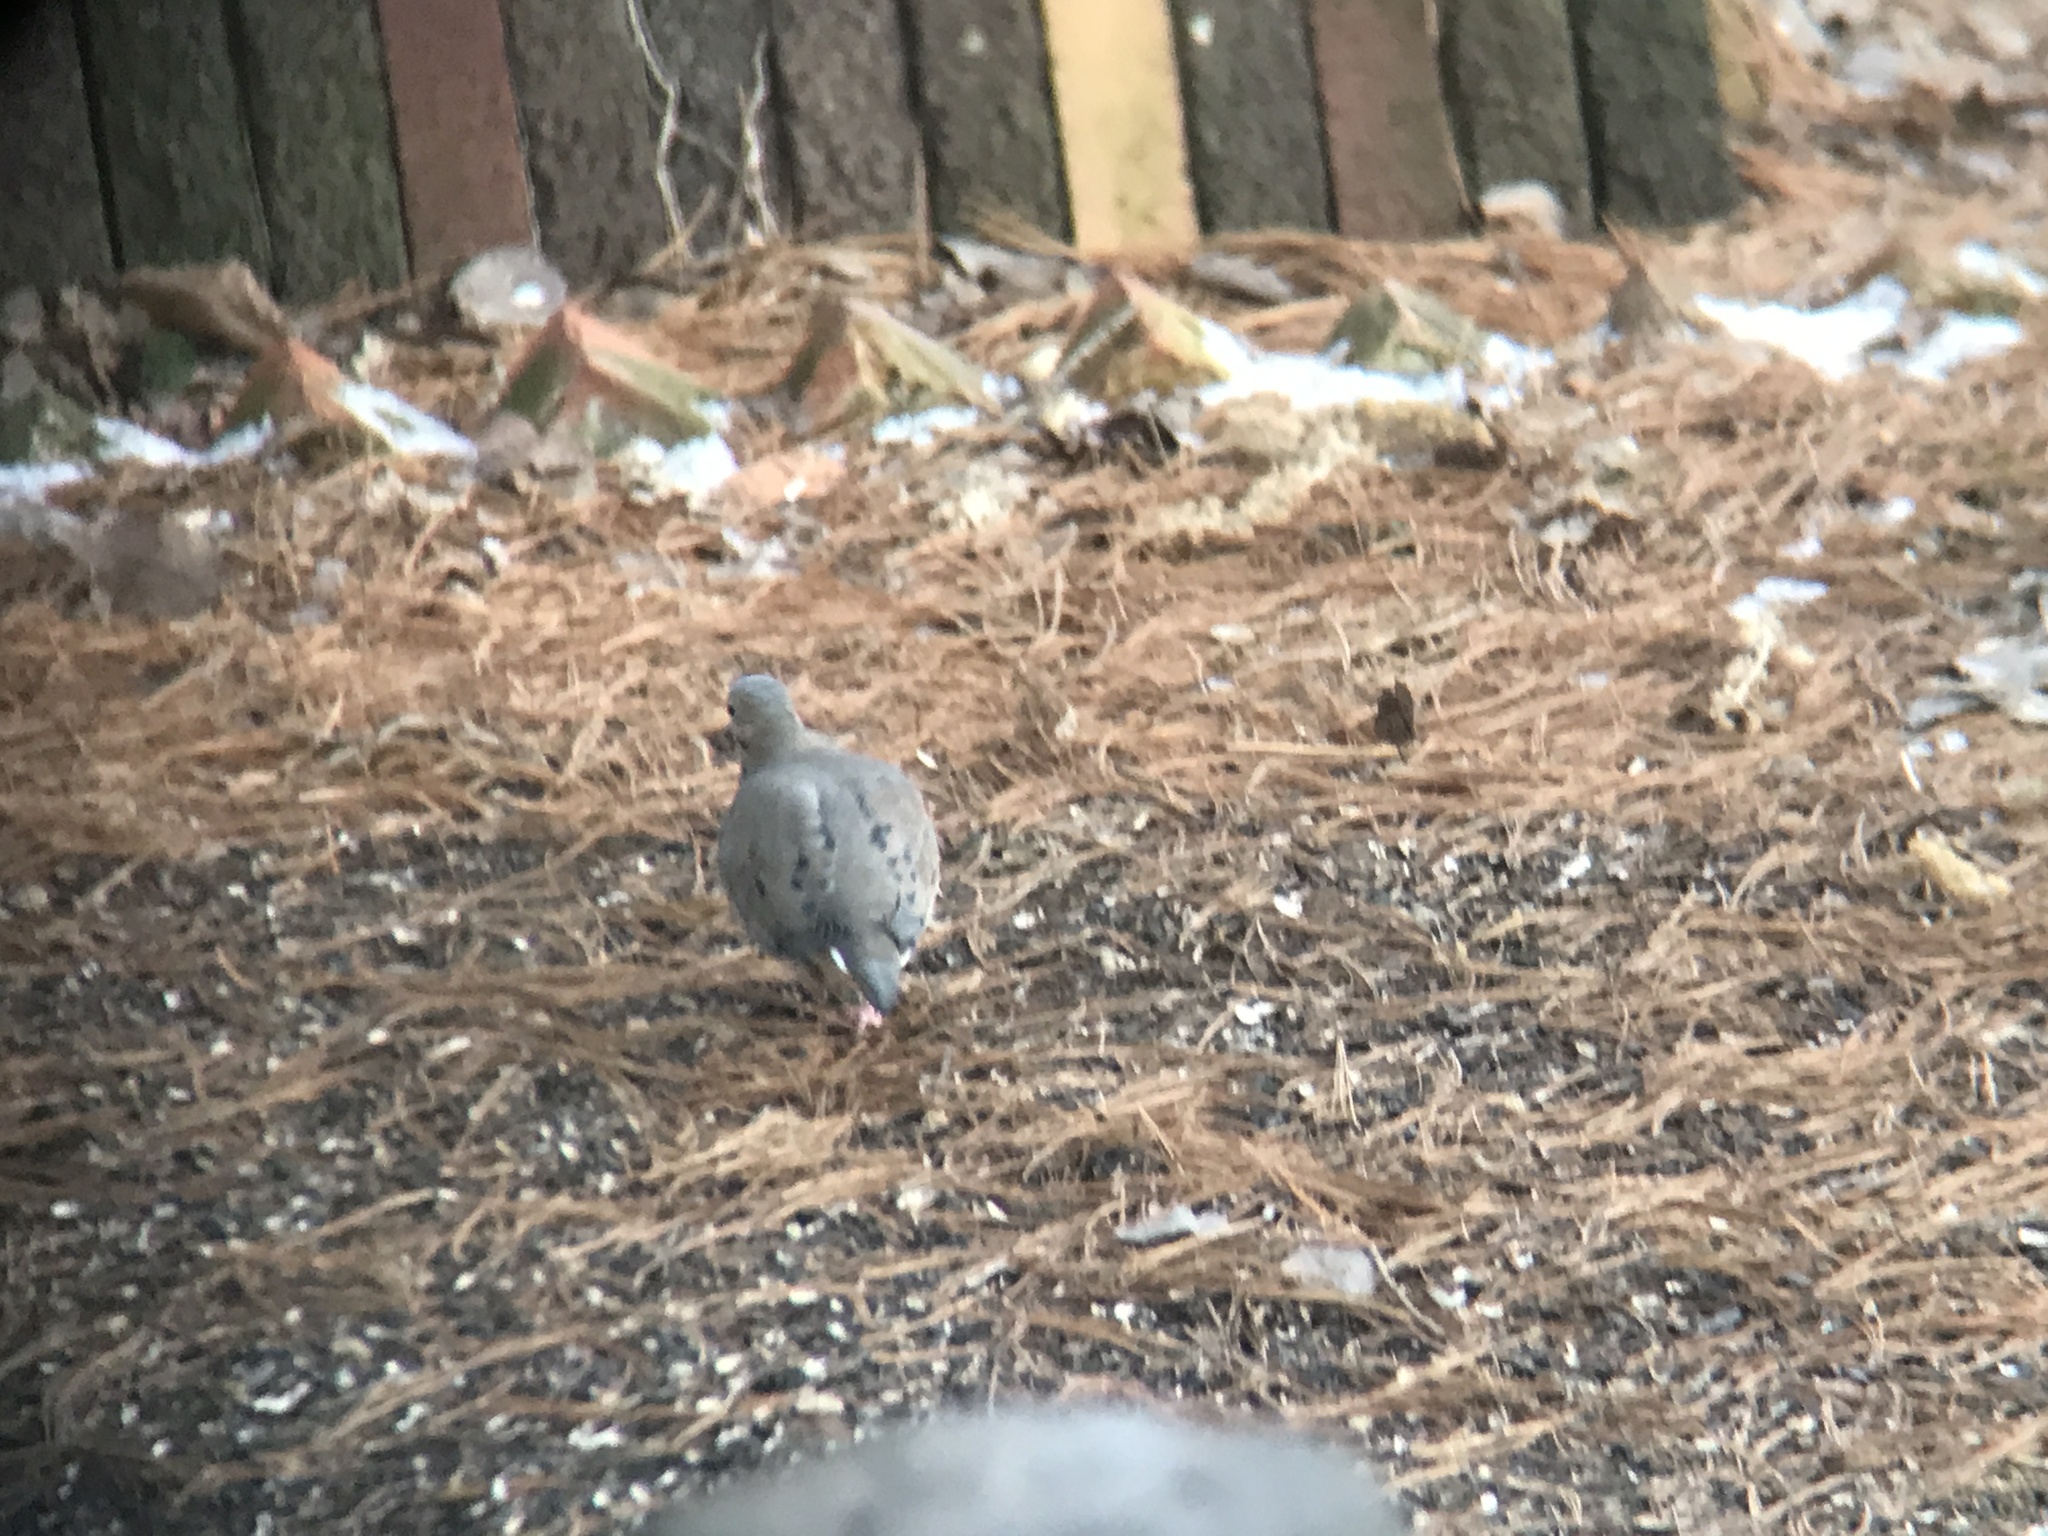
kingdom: Animalia
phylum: Chordata
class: Aves
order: Columbiformes
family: Columbidae
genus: Zenaida
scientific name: Zenaida macroura
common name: Mourning dove
